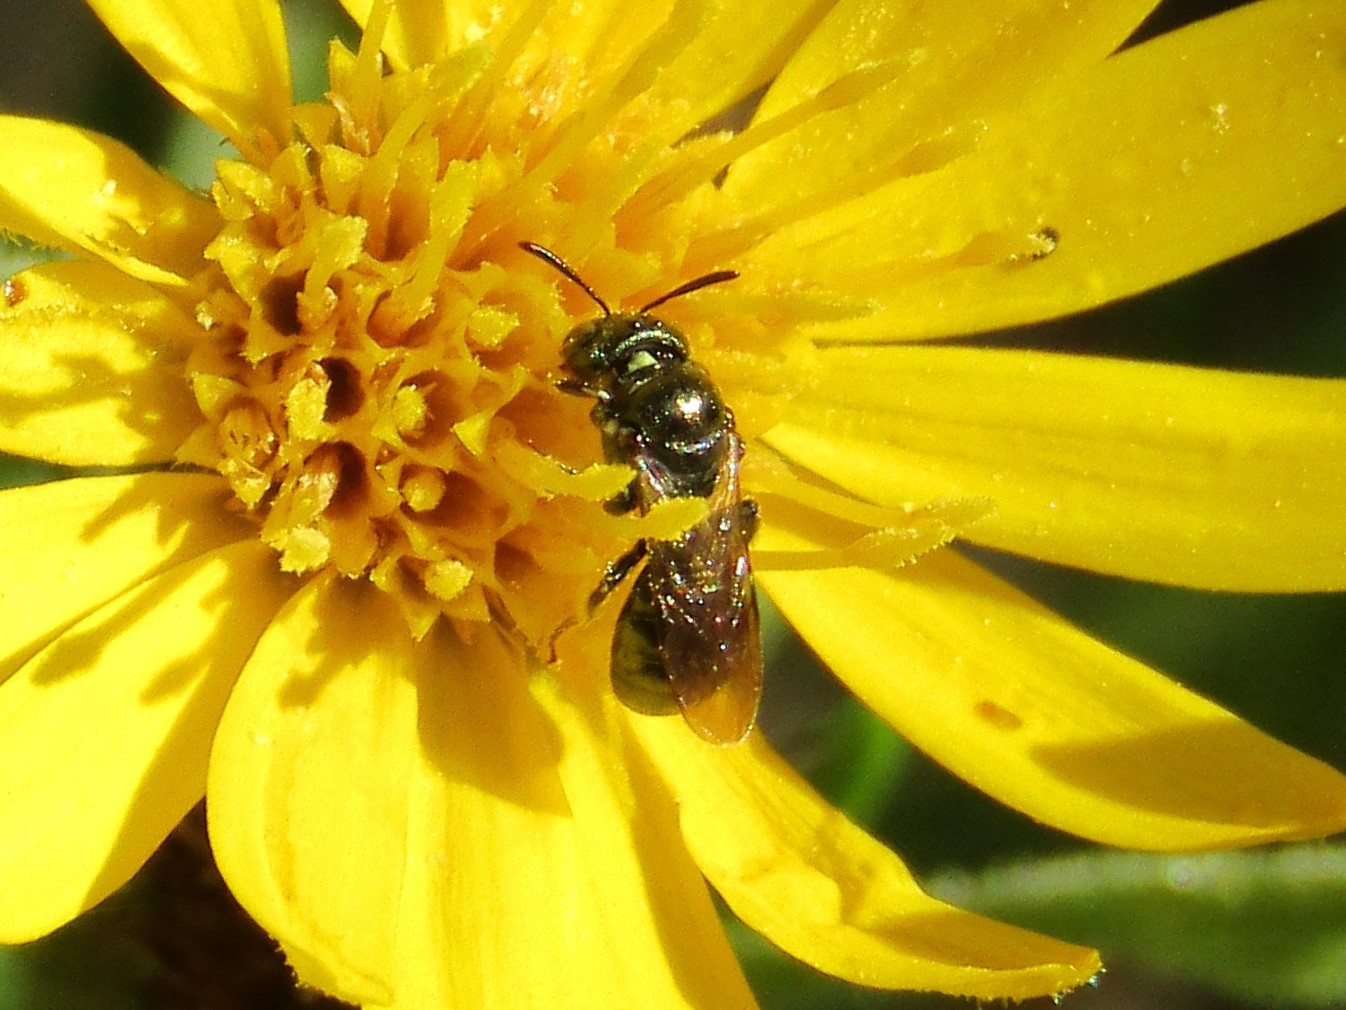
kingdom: Animalia
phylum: Arthropoda
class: Insecta
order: Hymenoptera
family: Apidae
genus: Zadontomerus
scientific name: Zadontomerus
